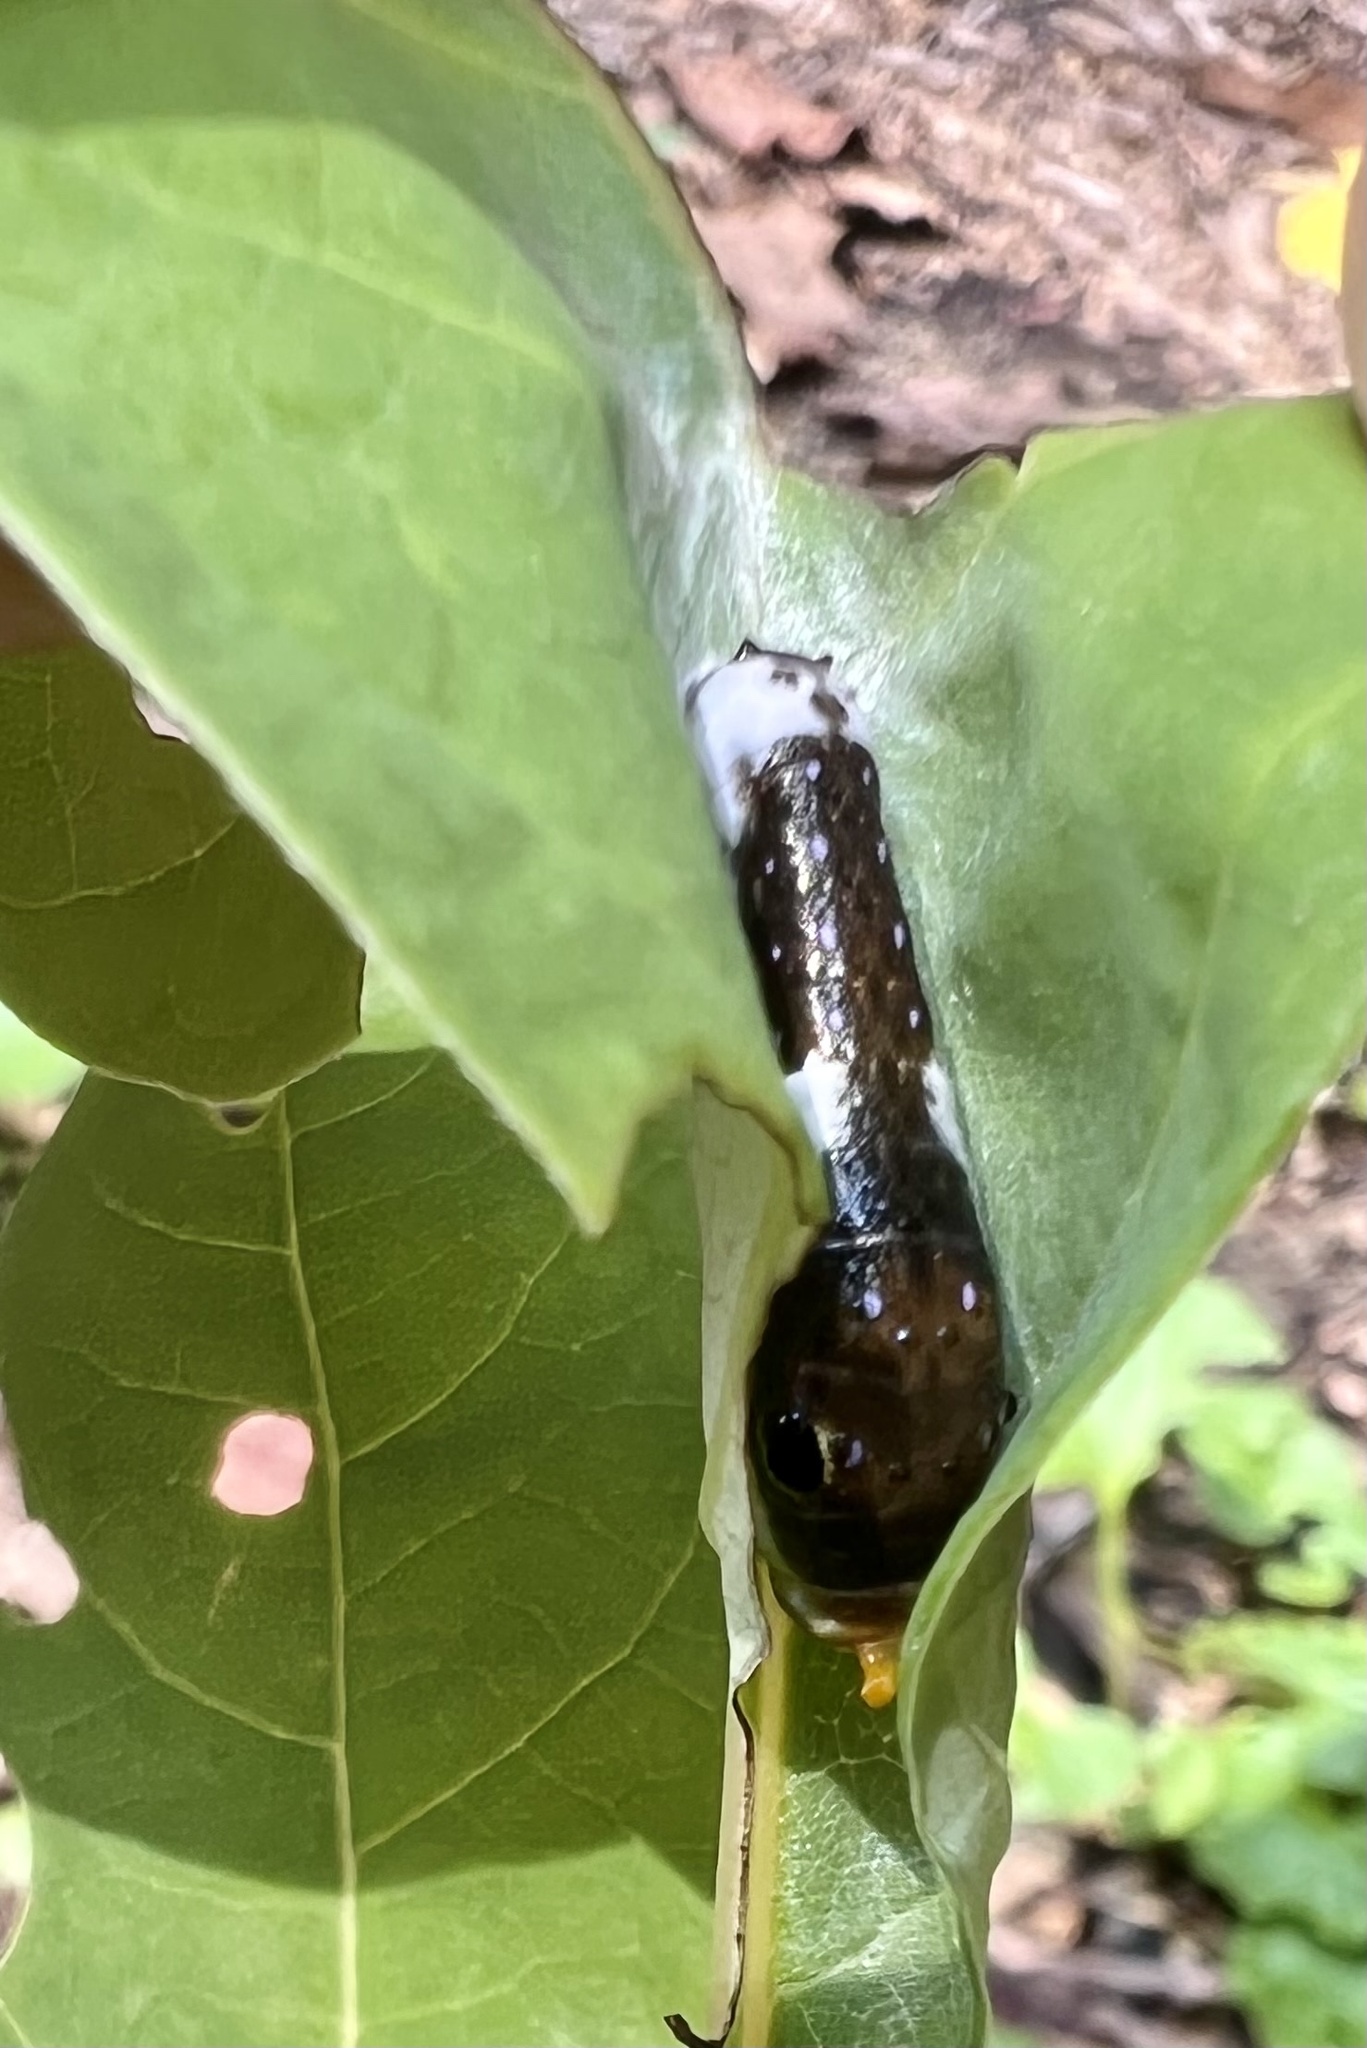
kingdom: Animalia
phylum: Arthropoda
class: Insecta
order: Lepidoptera
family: Papilionidae
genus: Papilio
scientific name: Papilio troilus
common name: Spicebush swallowtail
